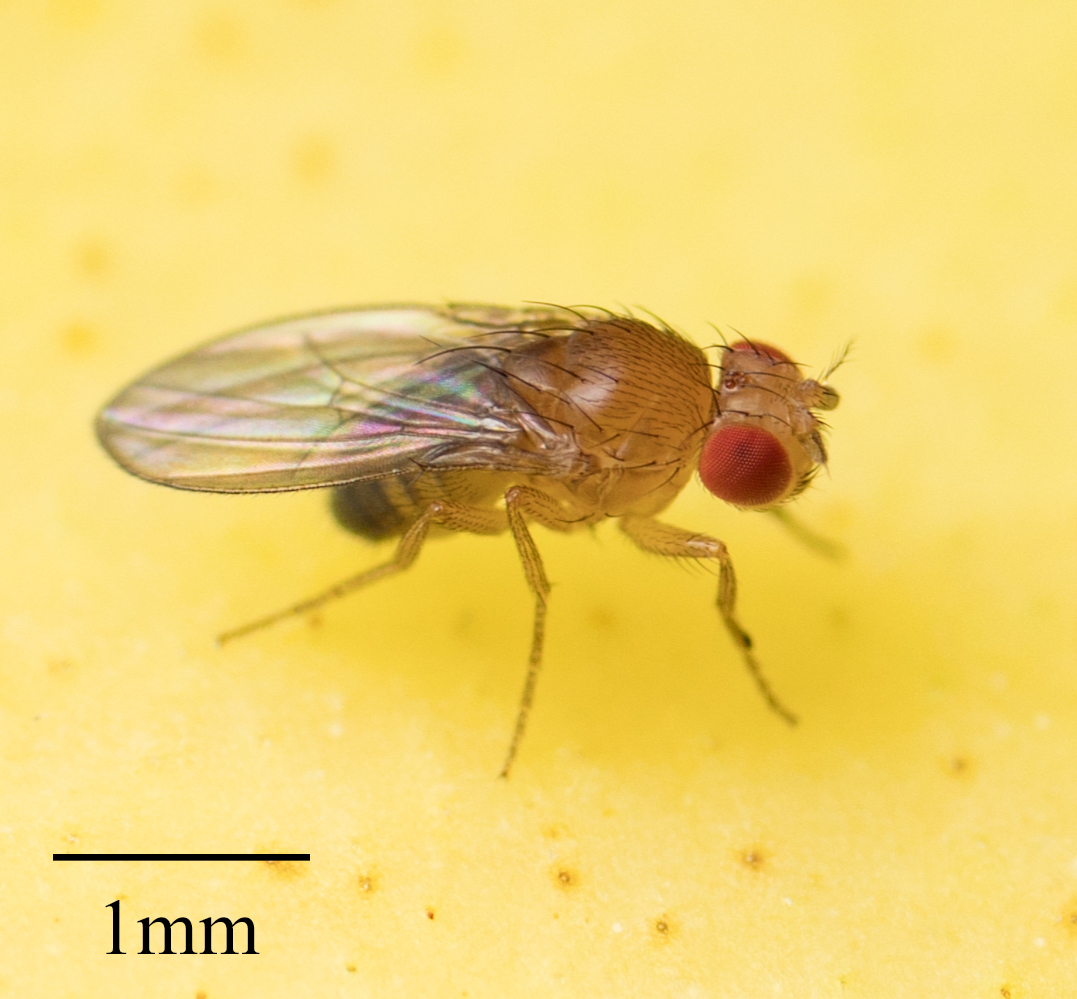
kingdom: Animalia
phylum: Arthropoda
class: Insecta
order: Diptera
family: Drosophilidae
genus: Drosophila
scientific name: Drosophila melanogaster
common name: Pomace fly
